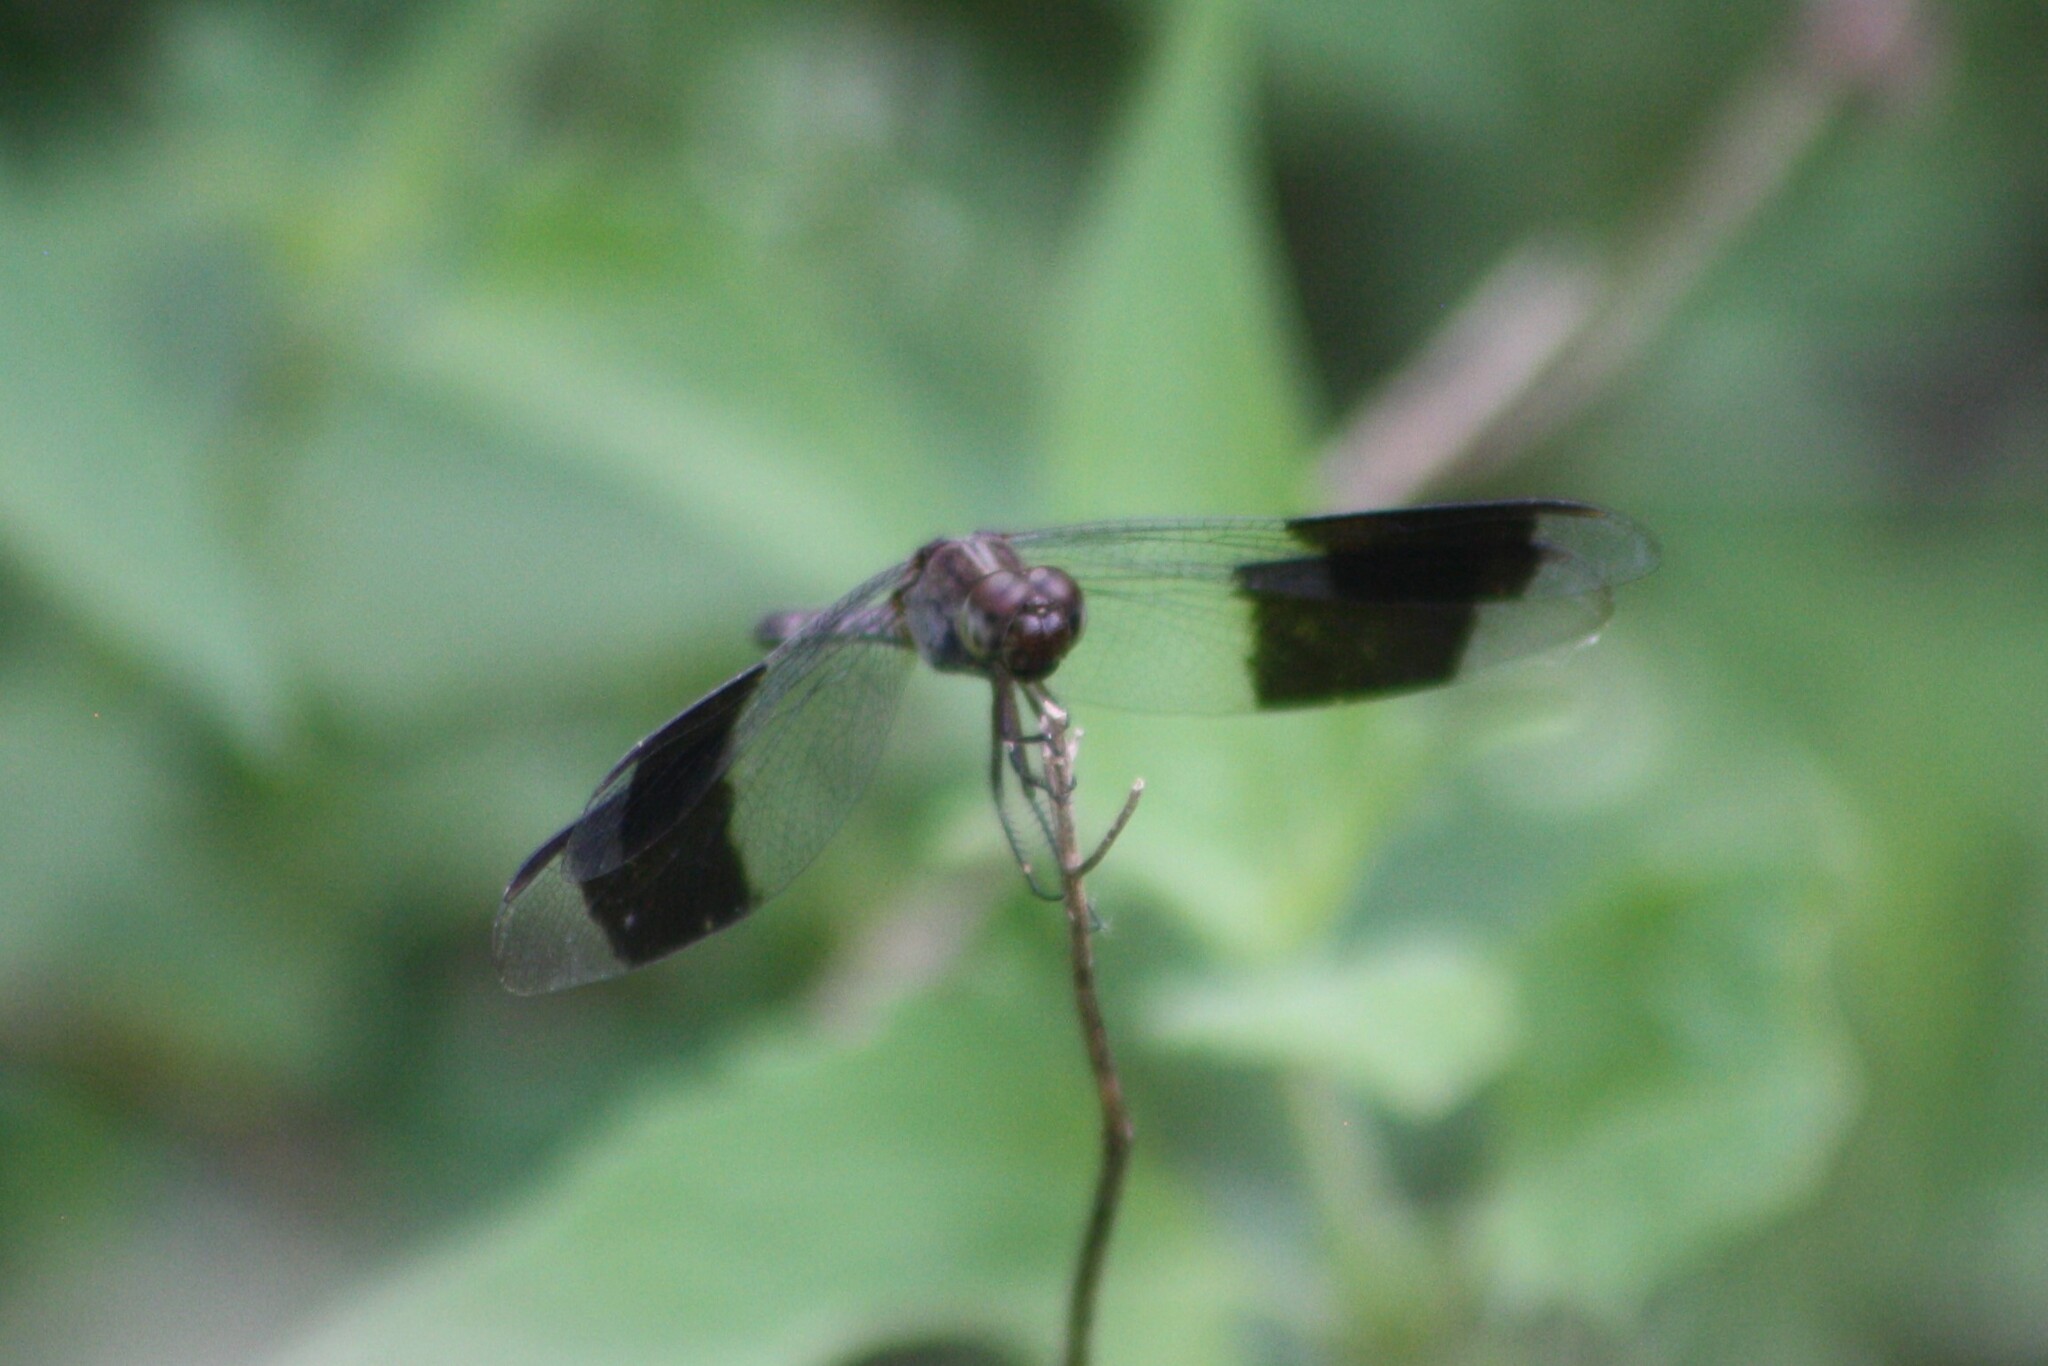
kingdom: Animalia
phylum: Arthropoda
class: Insecta
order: Odonata
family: Libellulidae
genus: Erythrodiplax
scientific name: Erythrodiplax umbrata
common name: Band-winged dragonlet
